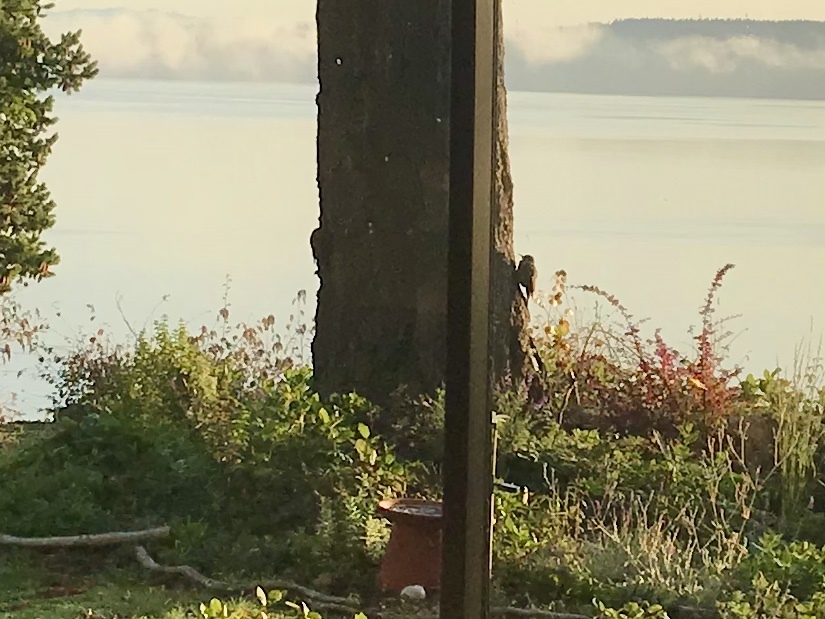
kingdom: Animalia
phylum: Chordata
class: Aves
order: Piciformes
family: Picidae
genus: Colaptes
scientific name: Colaptes auratus
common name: Northern flicker
